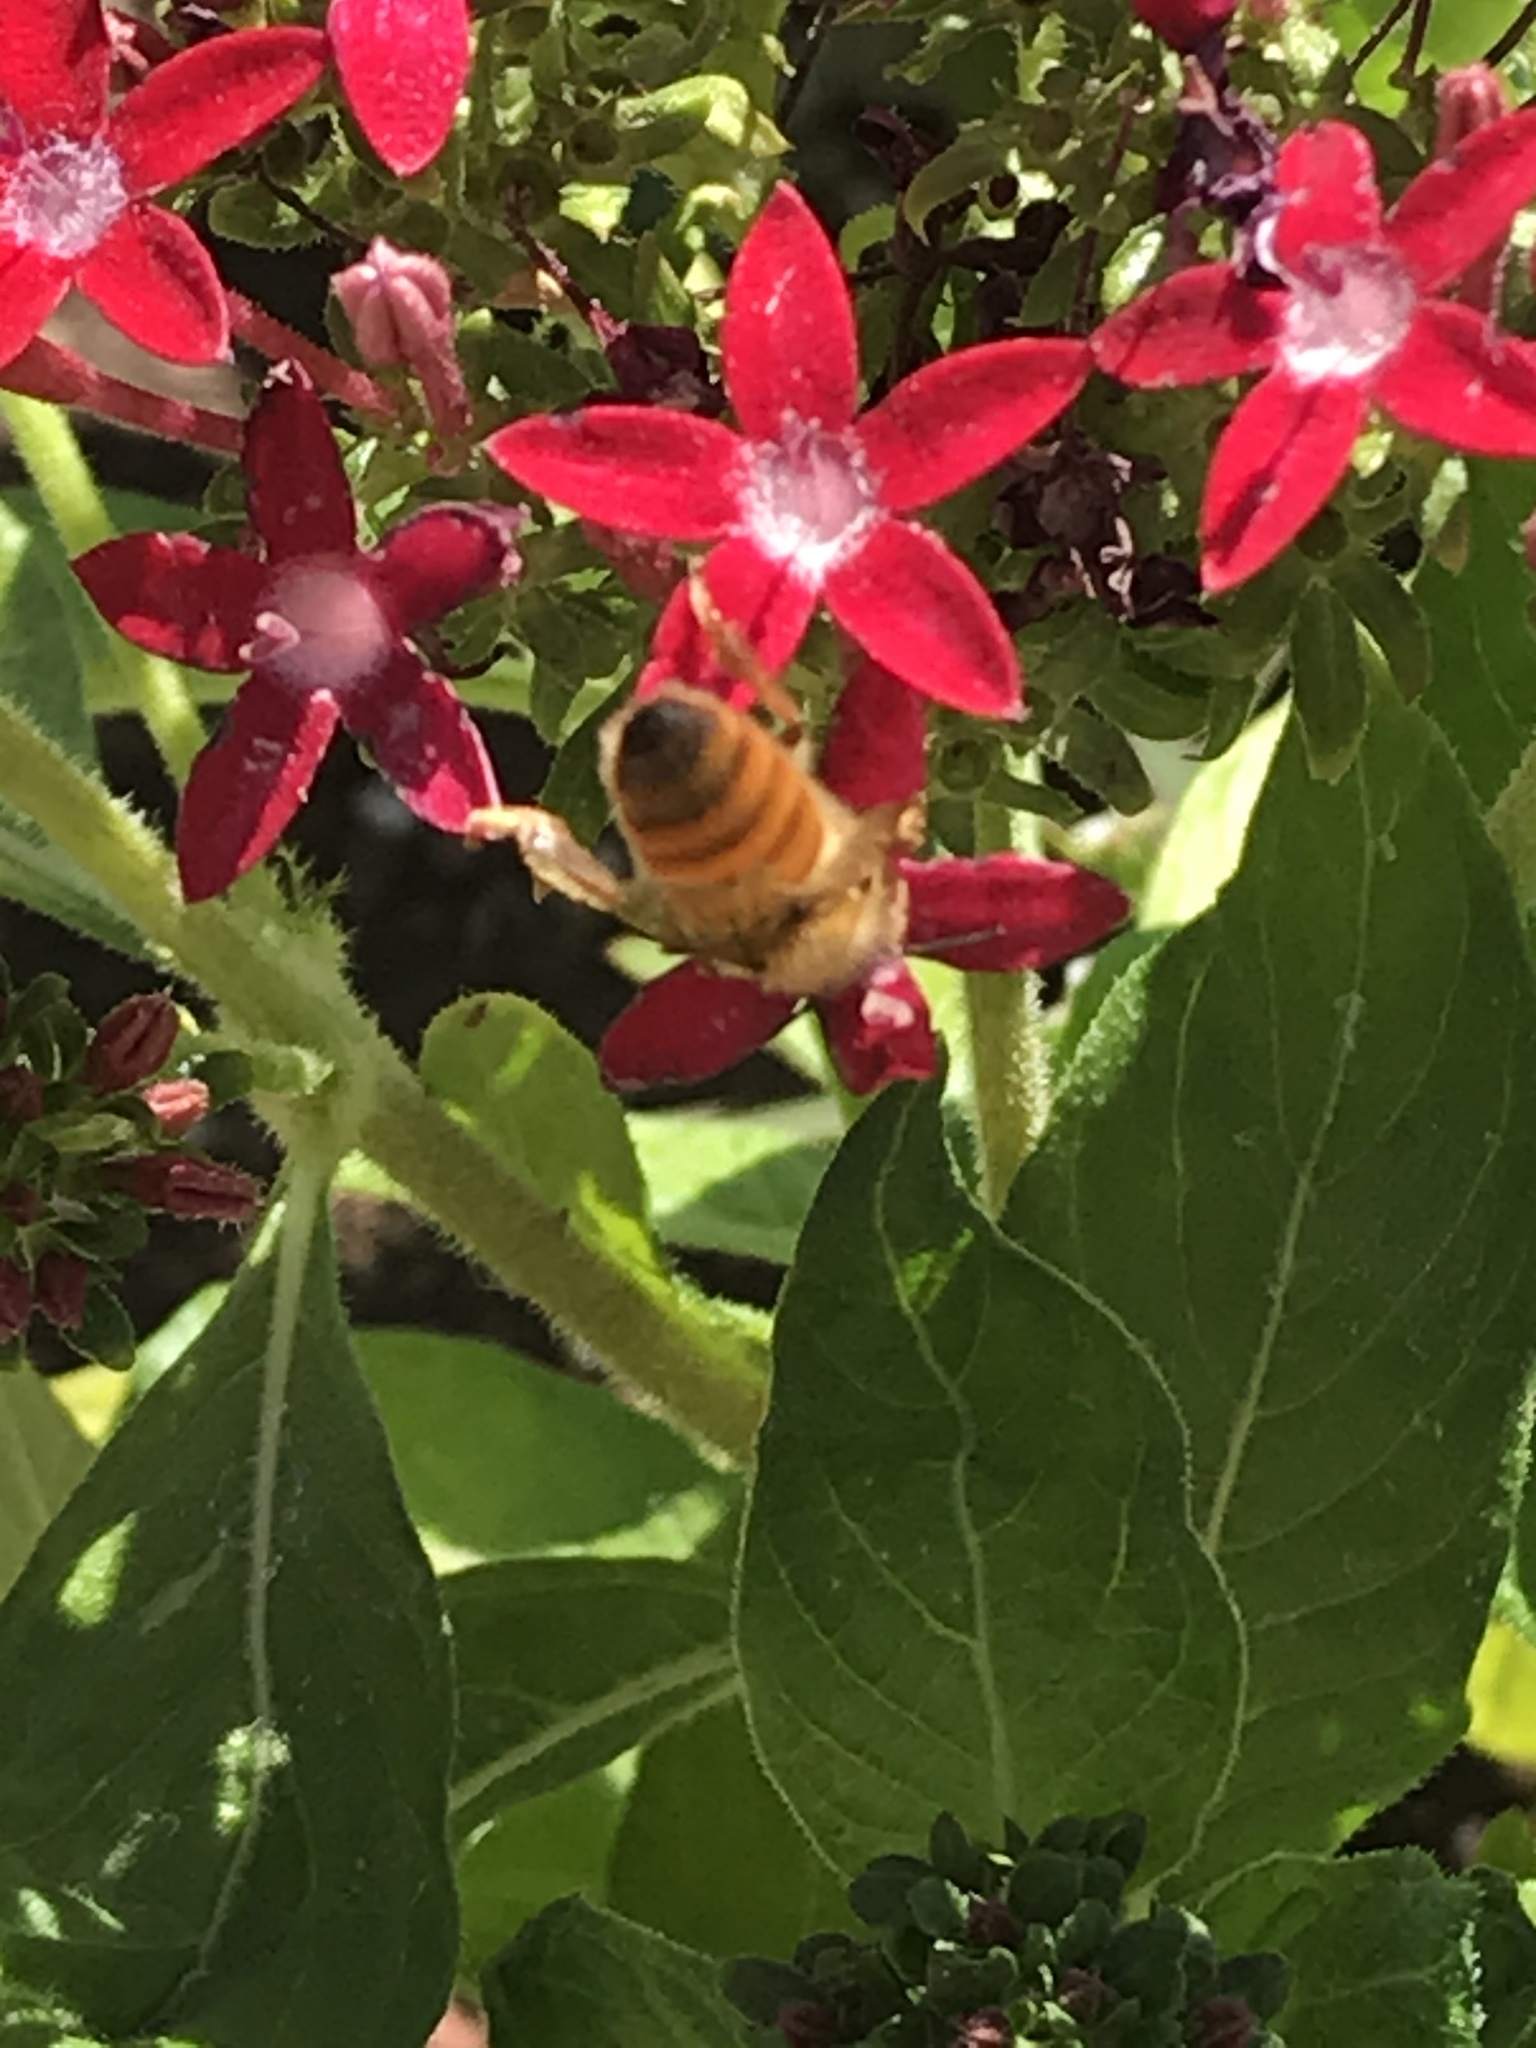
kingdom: Animalia
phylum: Arthropoda
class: Insecta
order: Hymenoptera
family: Apidae
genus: Apis
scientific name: Apis mellifera
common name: Honey bee
